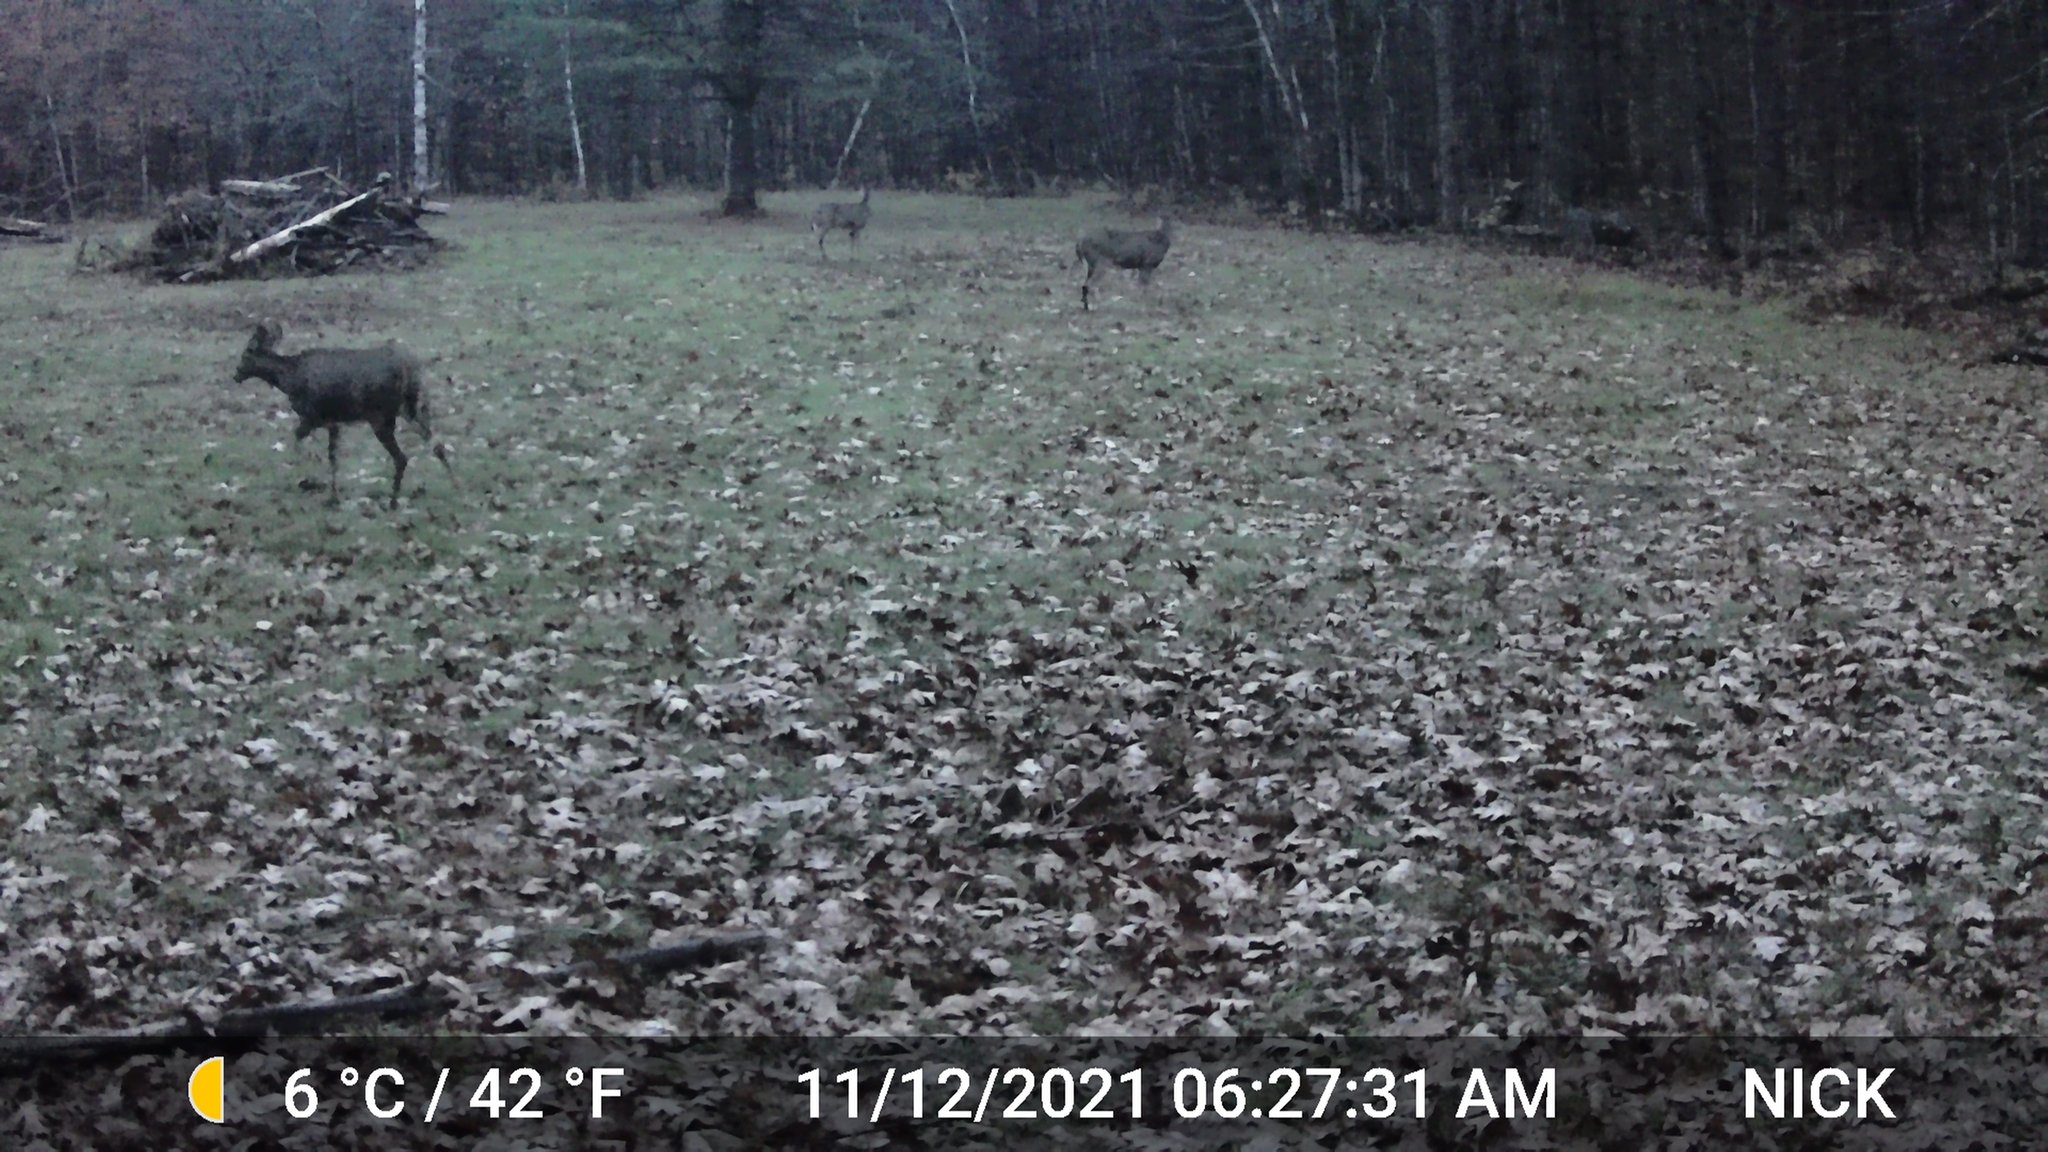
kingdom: Animalia
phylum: Chordata
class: Mammalia
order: Artiodactyla
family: Cervidae
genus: Odocoileus
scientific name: Odocoileus virginianus
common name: White-tailed deer
